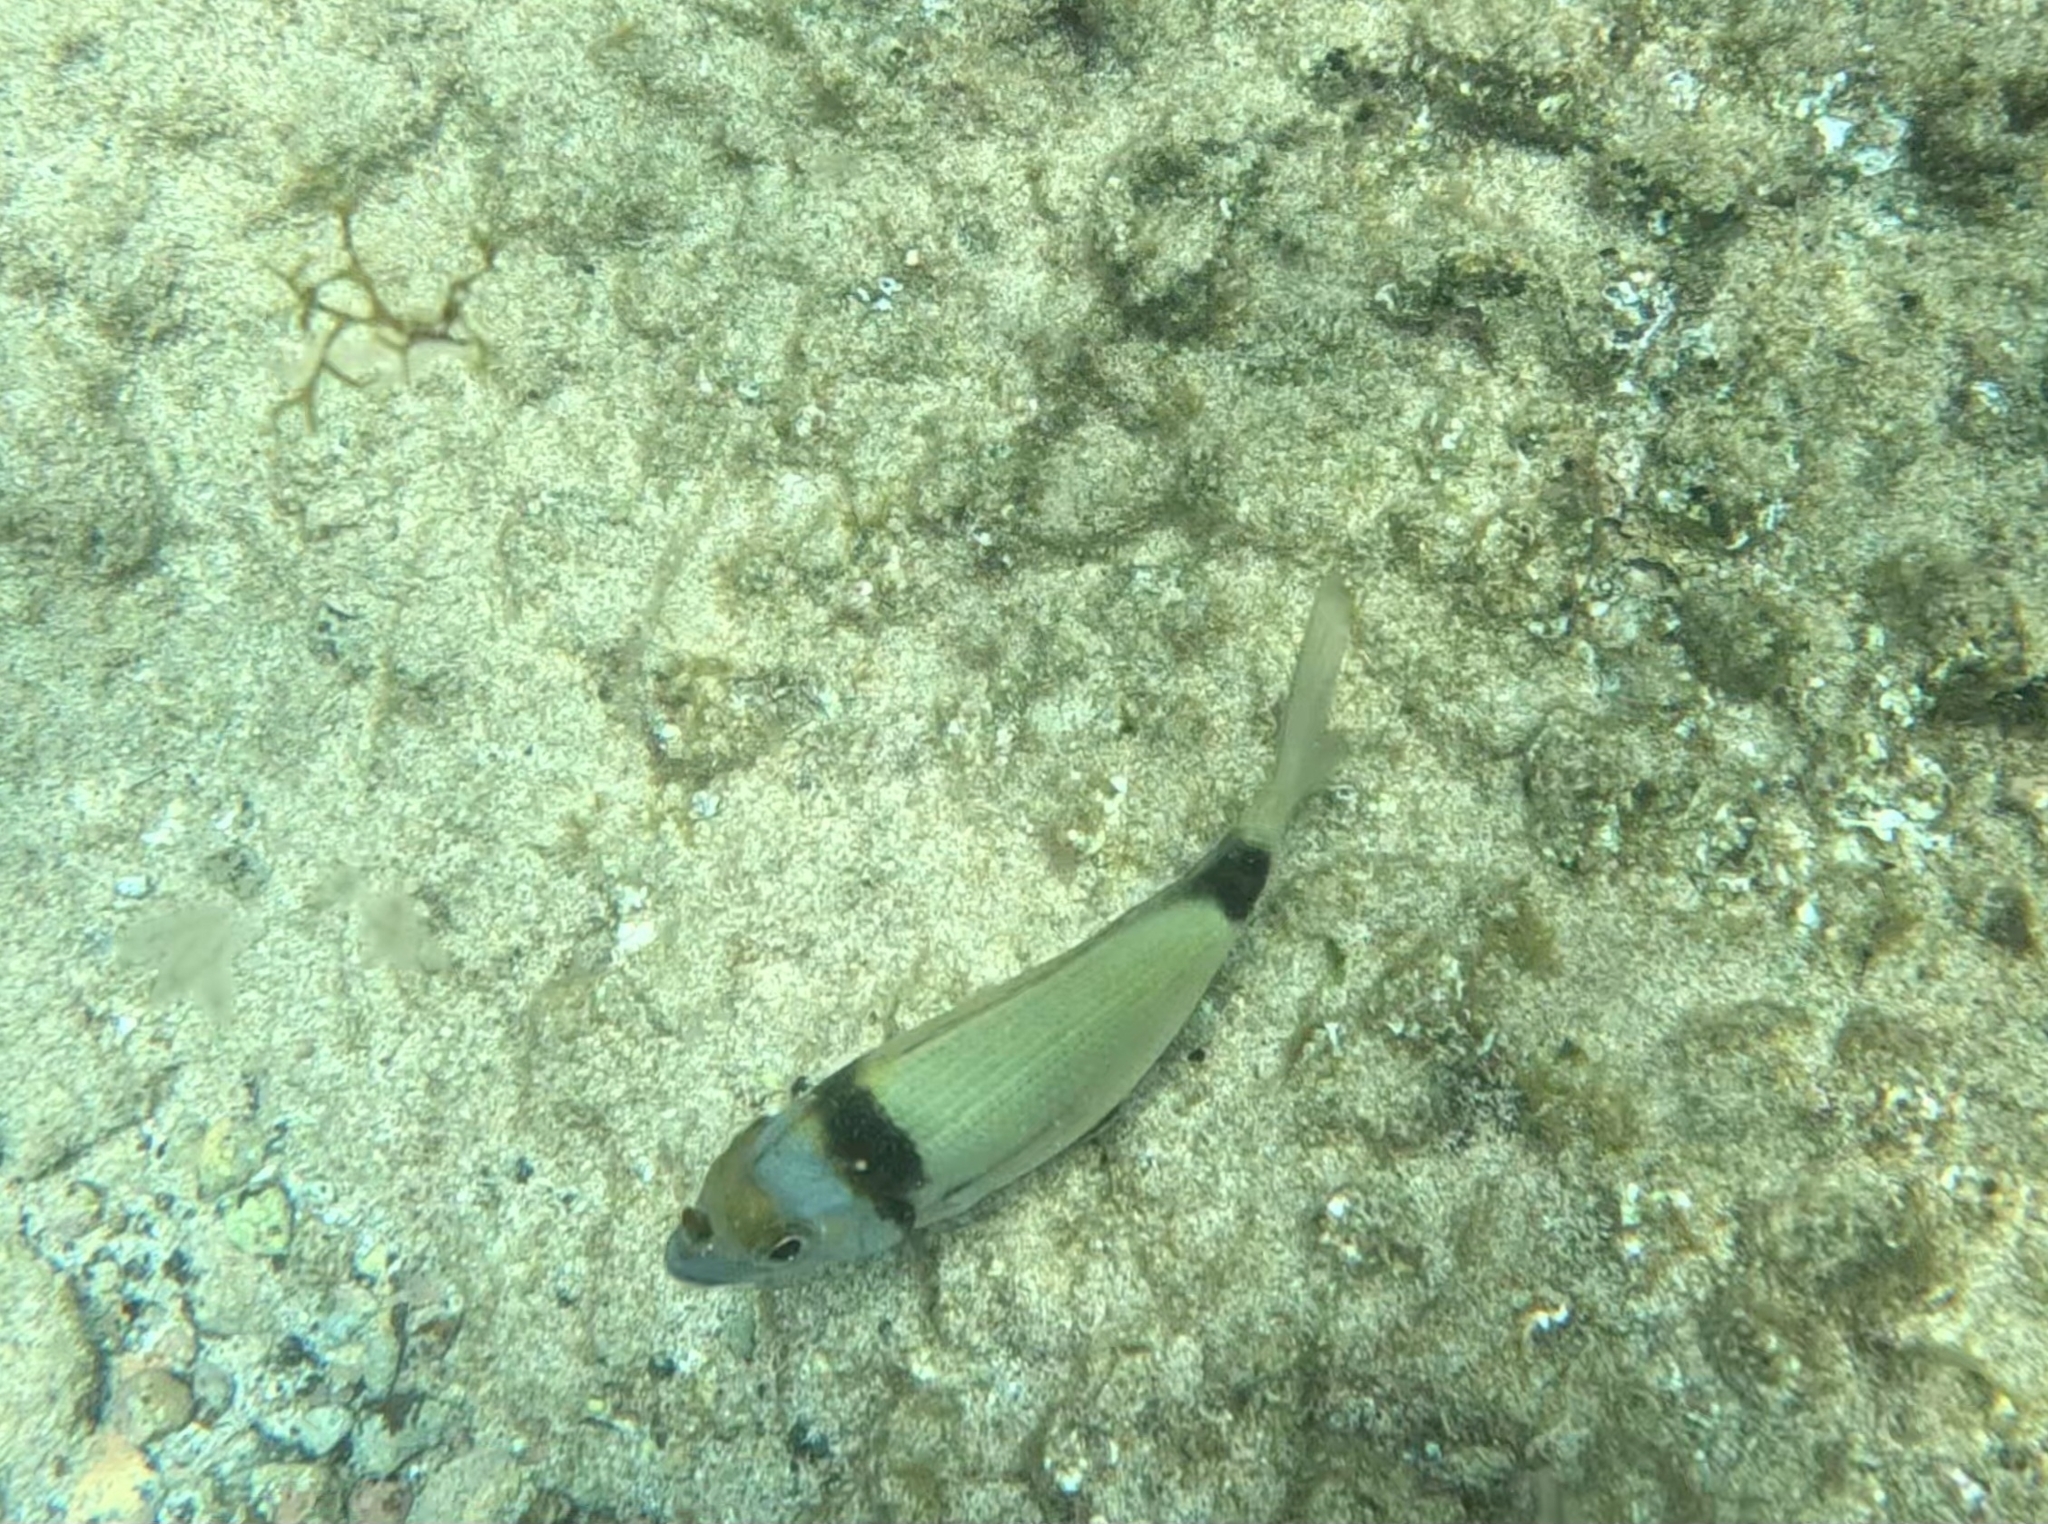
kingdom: Animalia
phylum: Chordata
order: Perciformes
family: Sparidae
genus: Diplodus
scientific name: Diplodus vulgaris
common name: Common two-banded seabream
